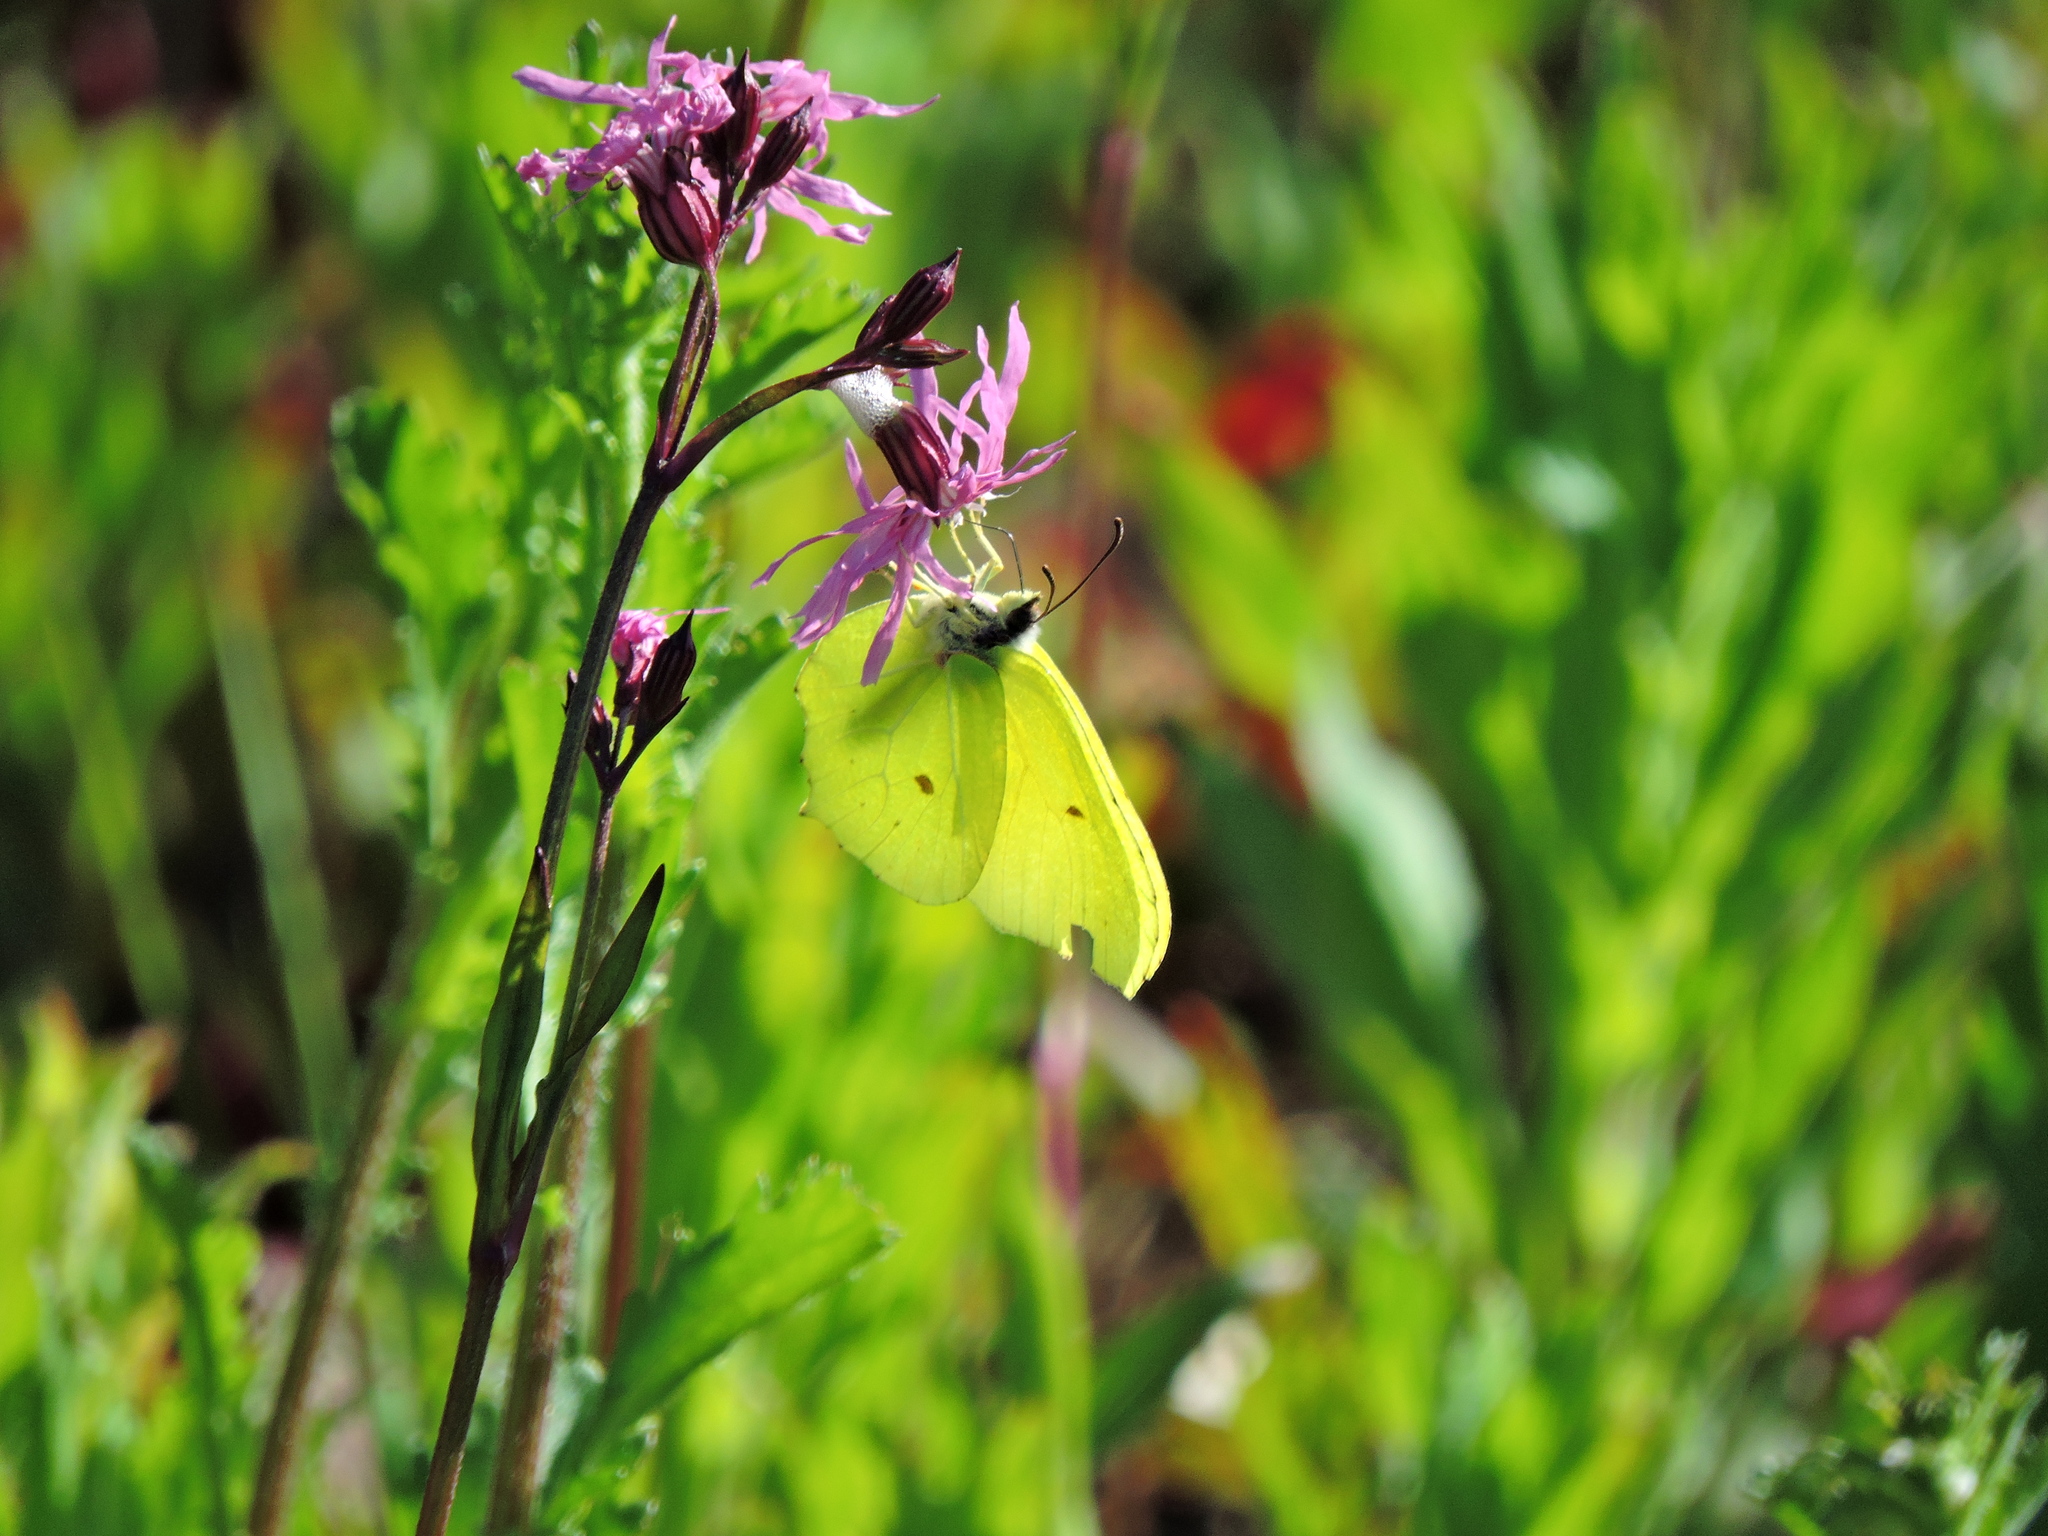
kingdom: Animalia
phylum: Arthropoda
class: Insecta
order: Lepidoptera
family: Pieridae
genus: Gonepteryx
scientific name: Gonepteryx rhamni
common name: Brimstone
